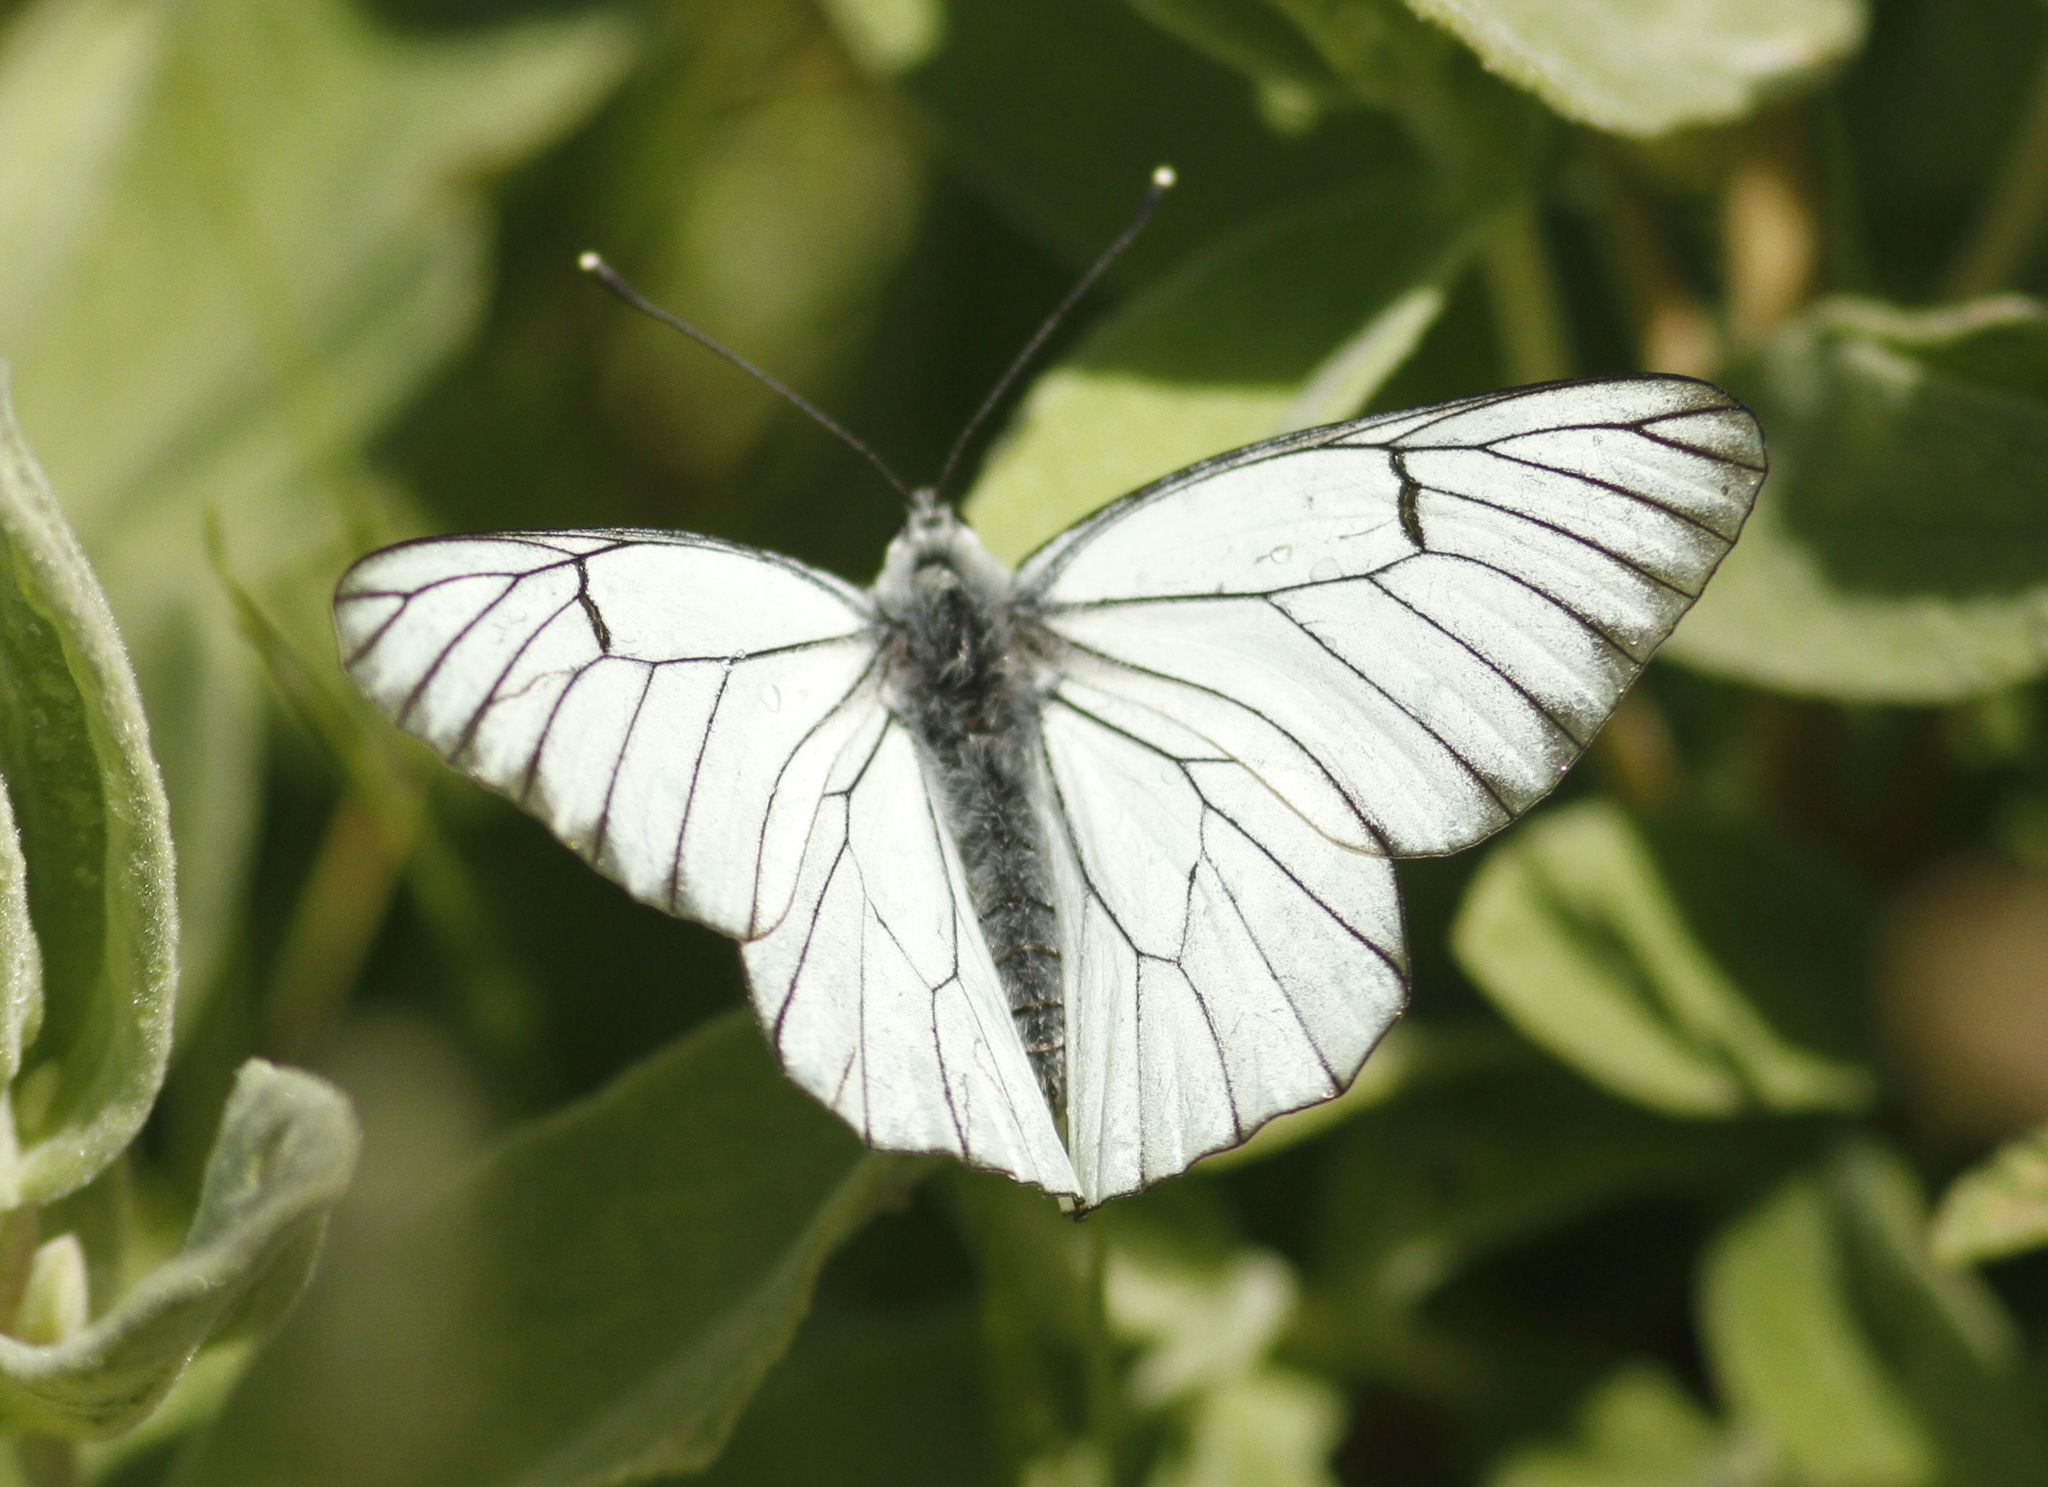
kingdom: Animalia
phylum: Arthropoda
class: Insecta
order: Lepidoptera
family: Pieridae
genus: Aporia
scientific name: Aporia crataegi
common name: Black-veined white
